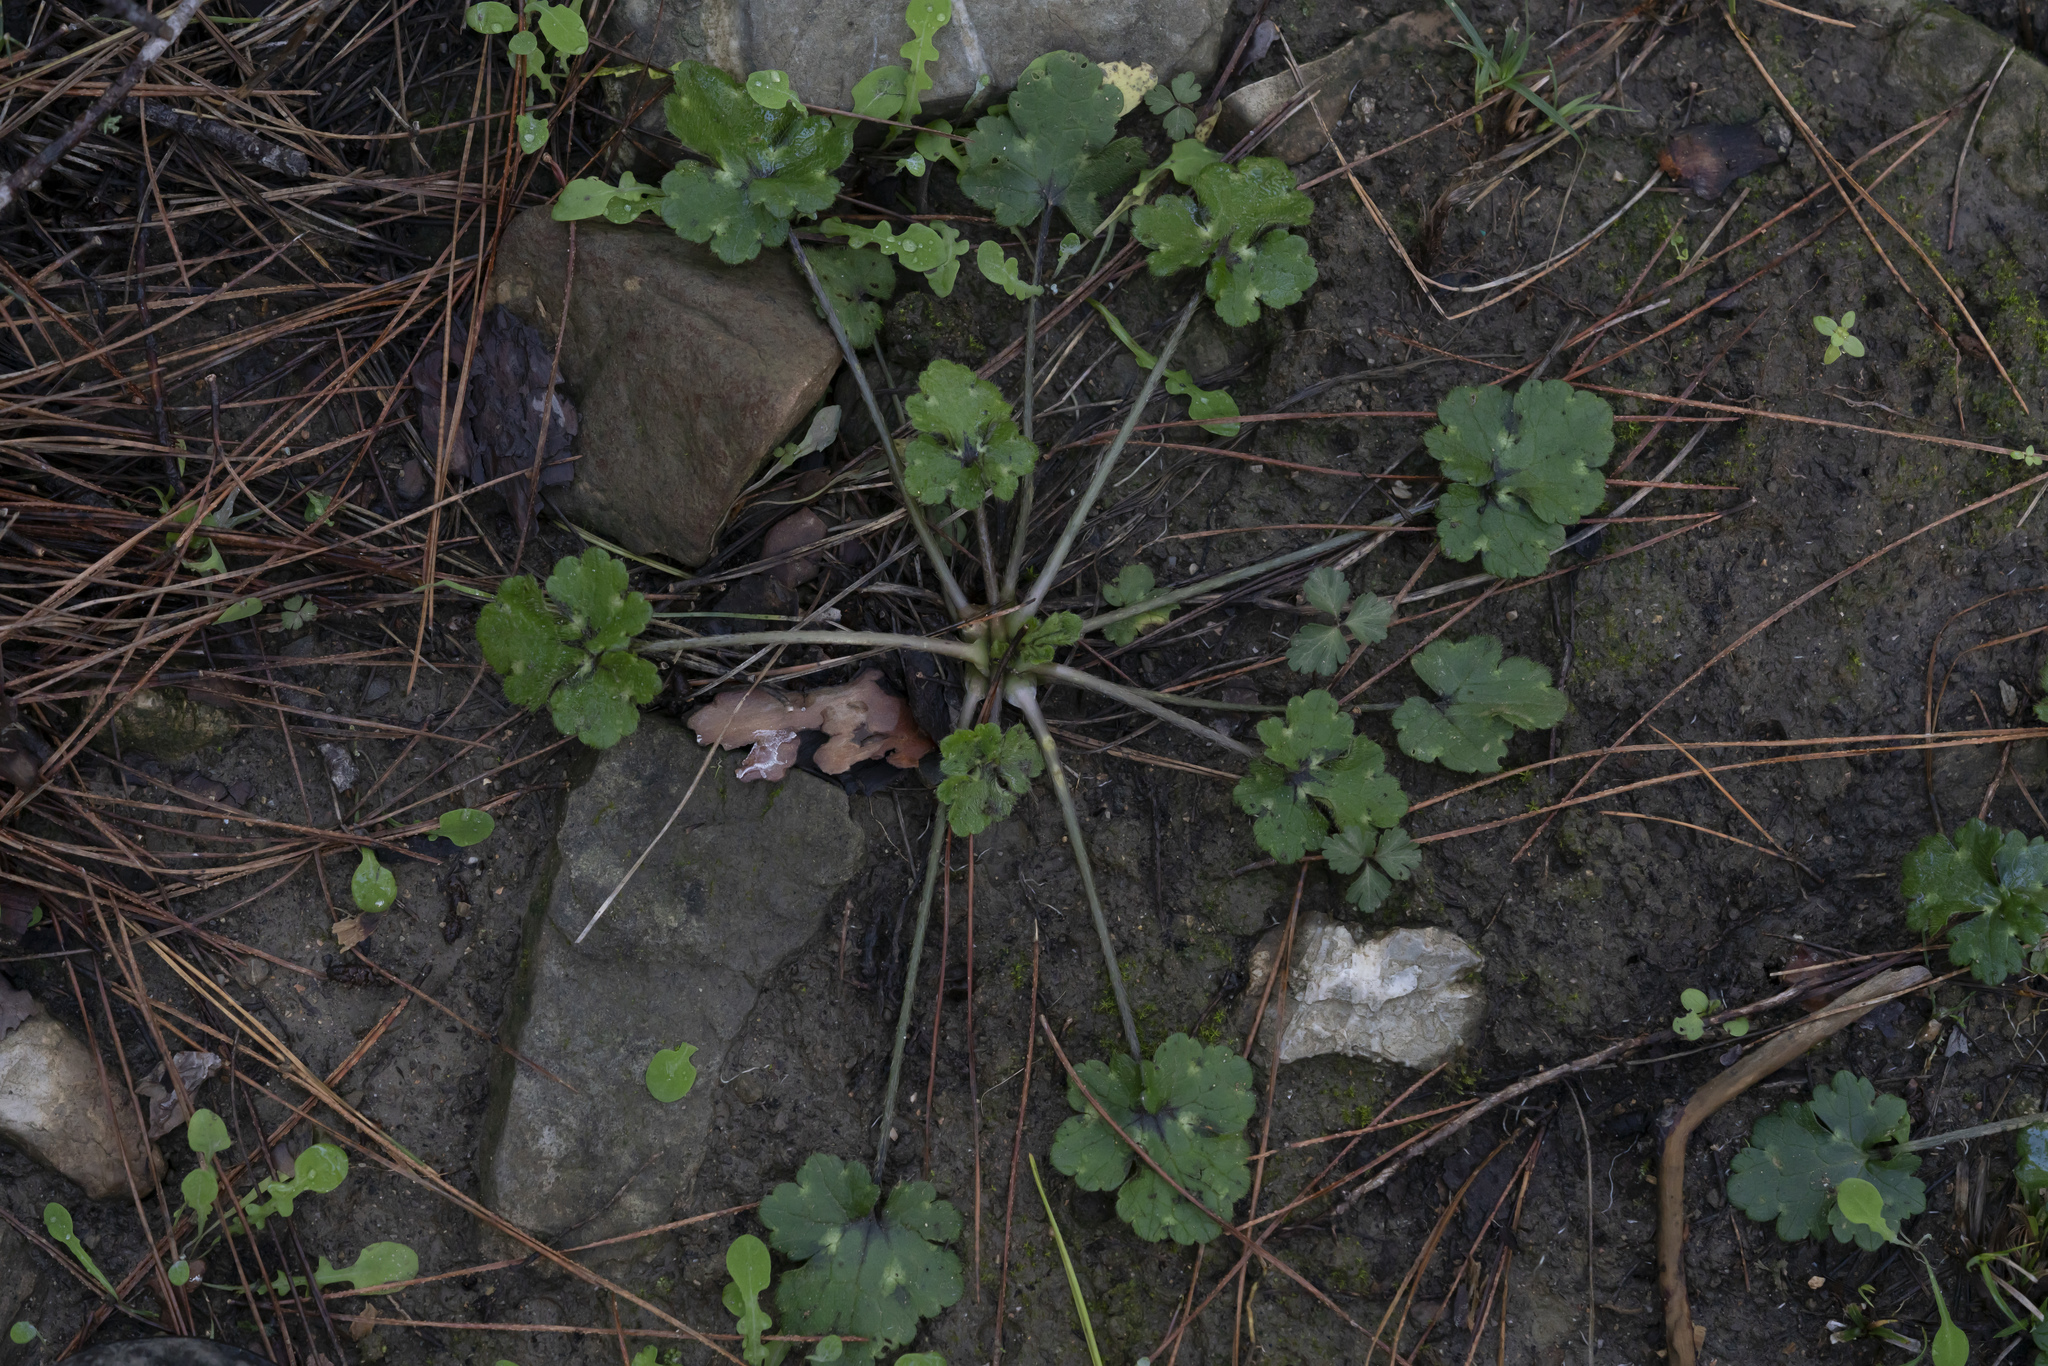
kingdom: Plantae
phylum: Tracheophyta
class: Magnoliopsida
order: Ranunculales
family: Ranunculaceae
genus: Ranunculus
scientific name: Ranunculus neapolitanus
